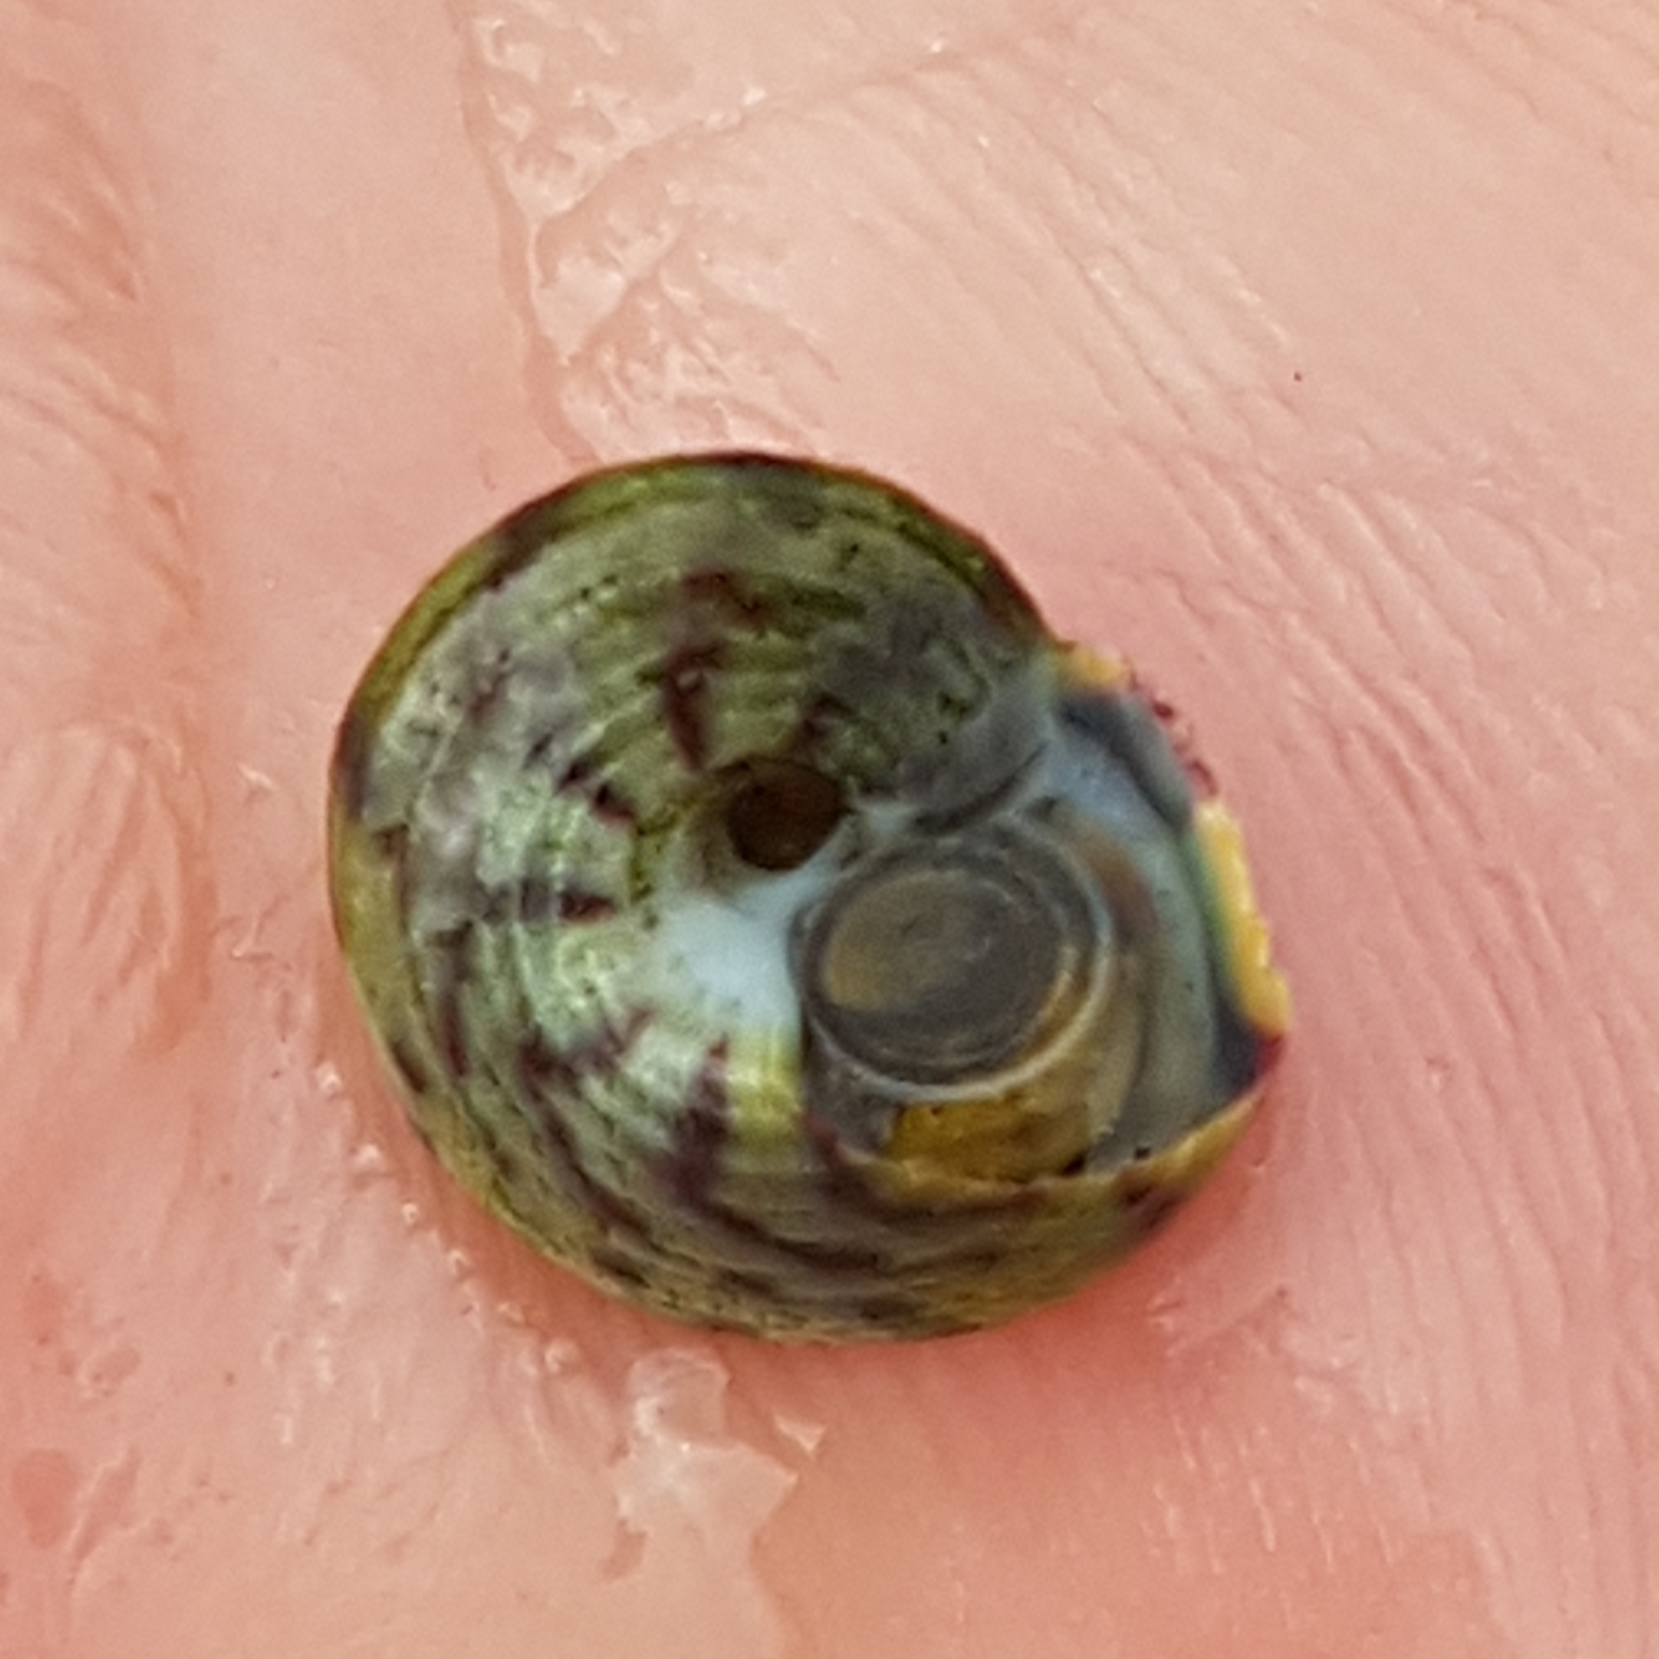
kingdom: Animalia
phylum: Mollusca
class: Gastropoda
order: Trochida
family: Trochidae
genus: Steromphala
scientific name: Steromphala umbilicalis
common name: Flat top shell
